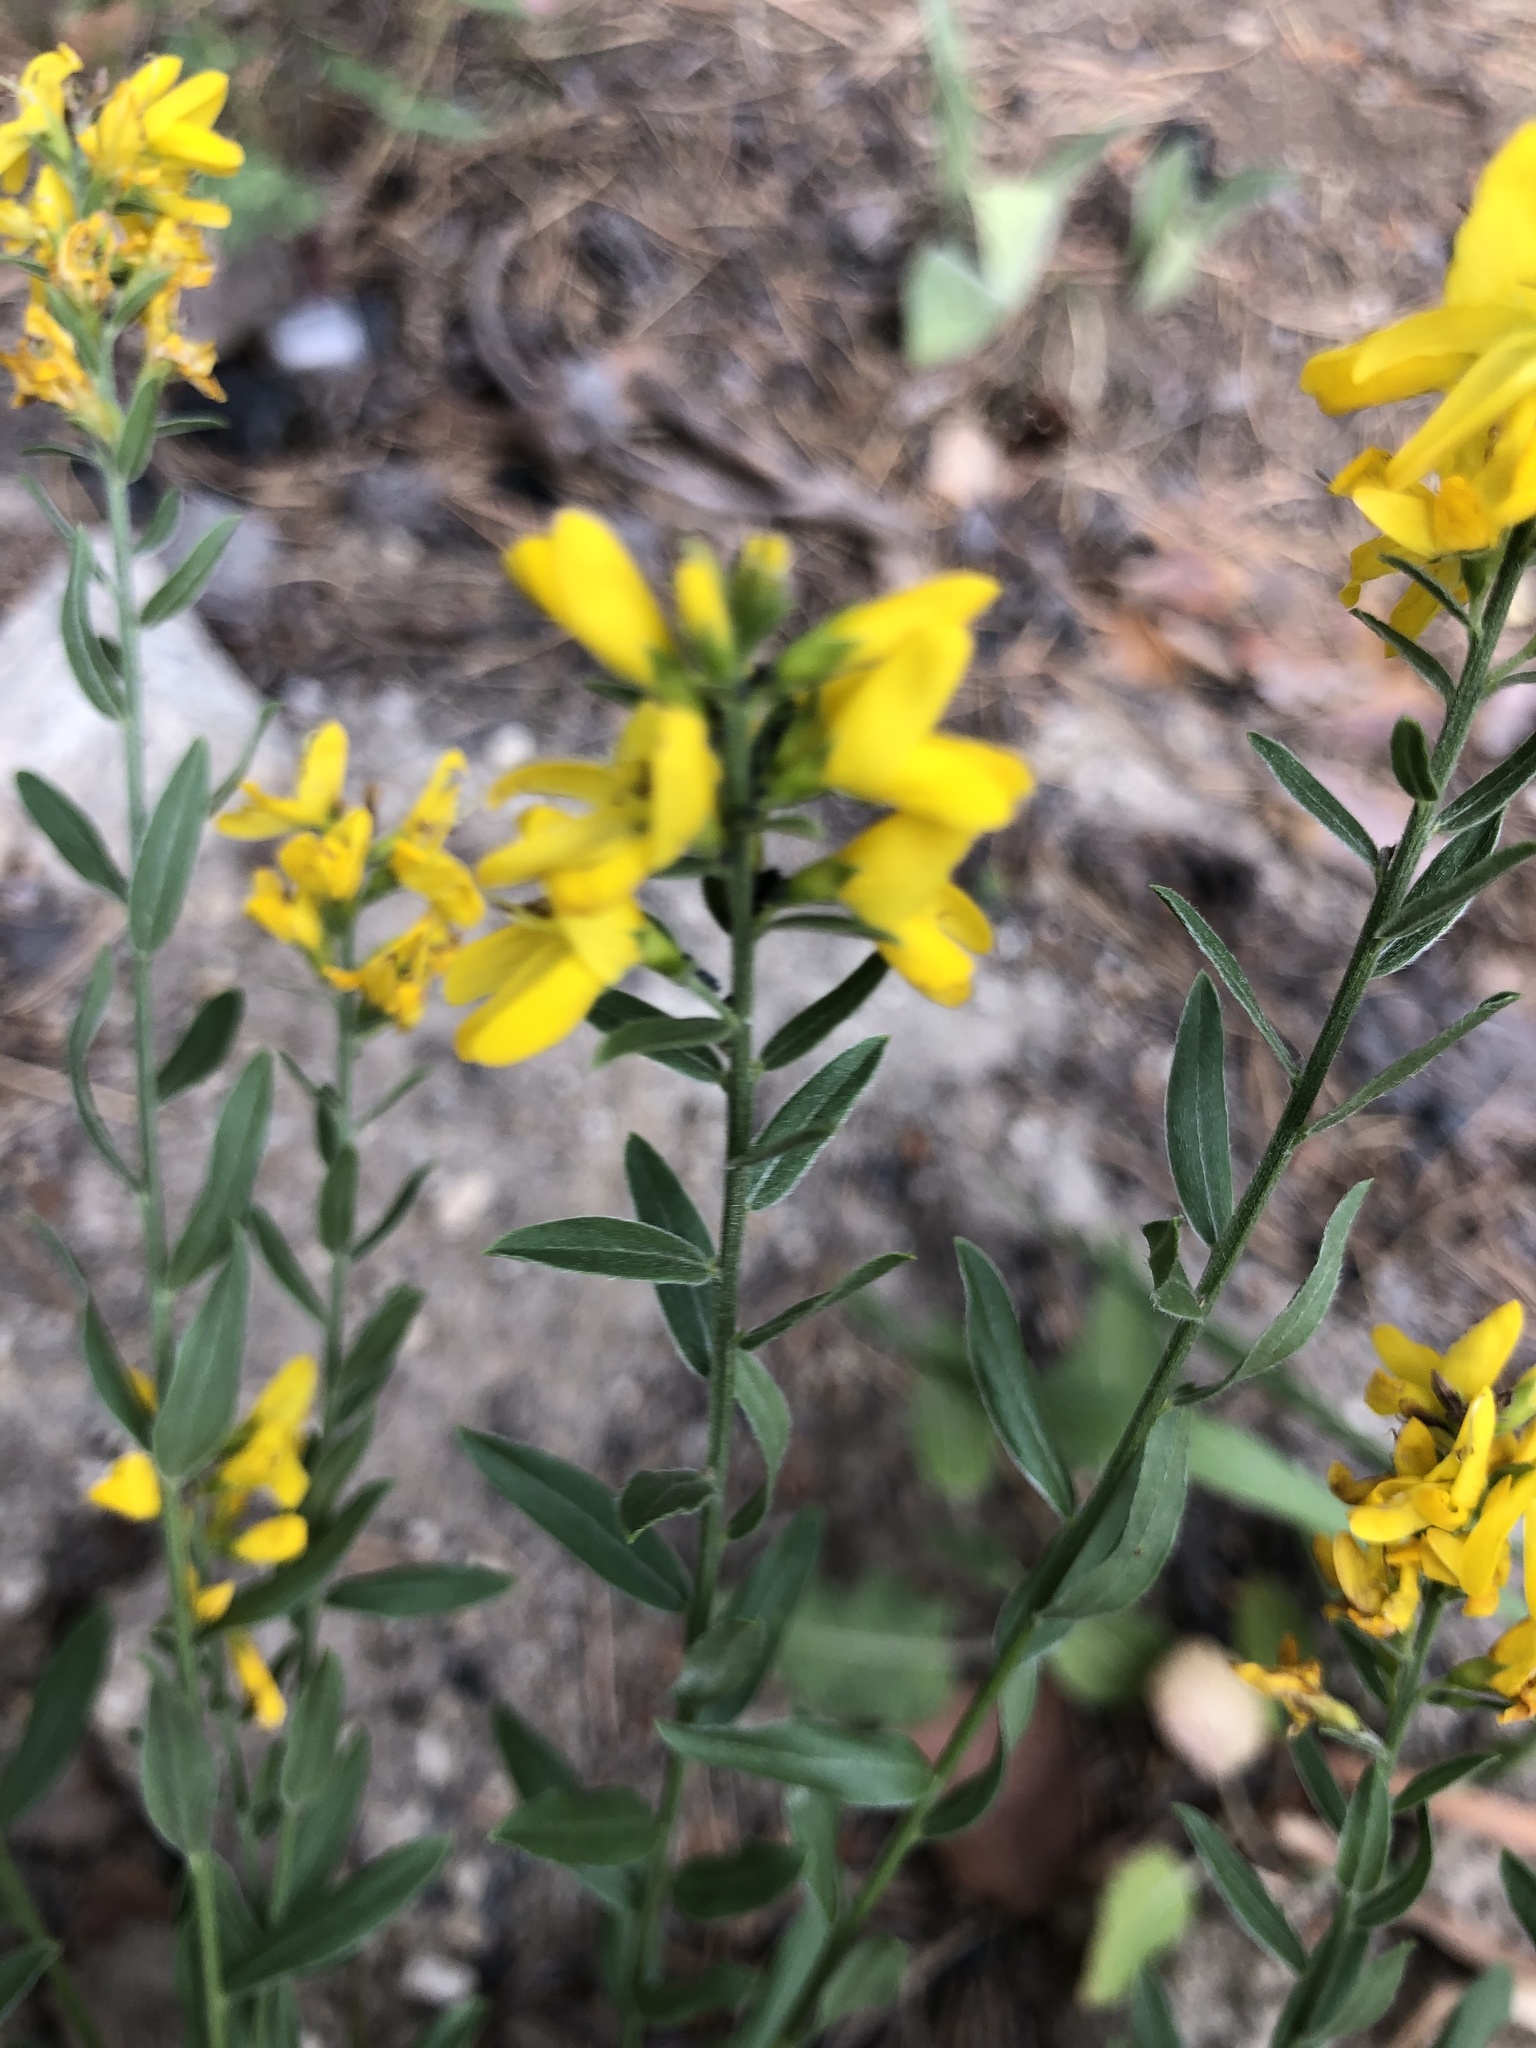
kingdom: Plantae
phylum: Tracheophyta
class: Magnoliopsida
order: Fabales
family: Fabaceae
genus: Genista
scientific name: Genista tinctoria
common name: Dyer's greenweed
